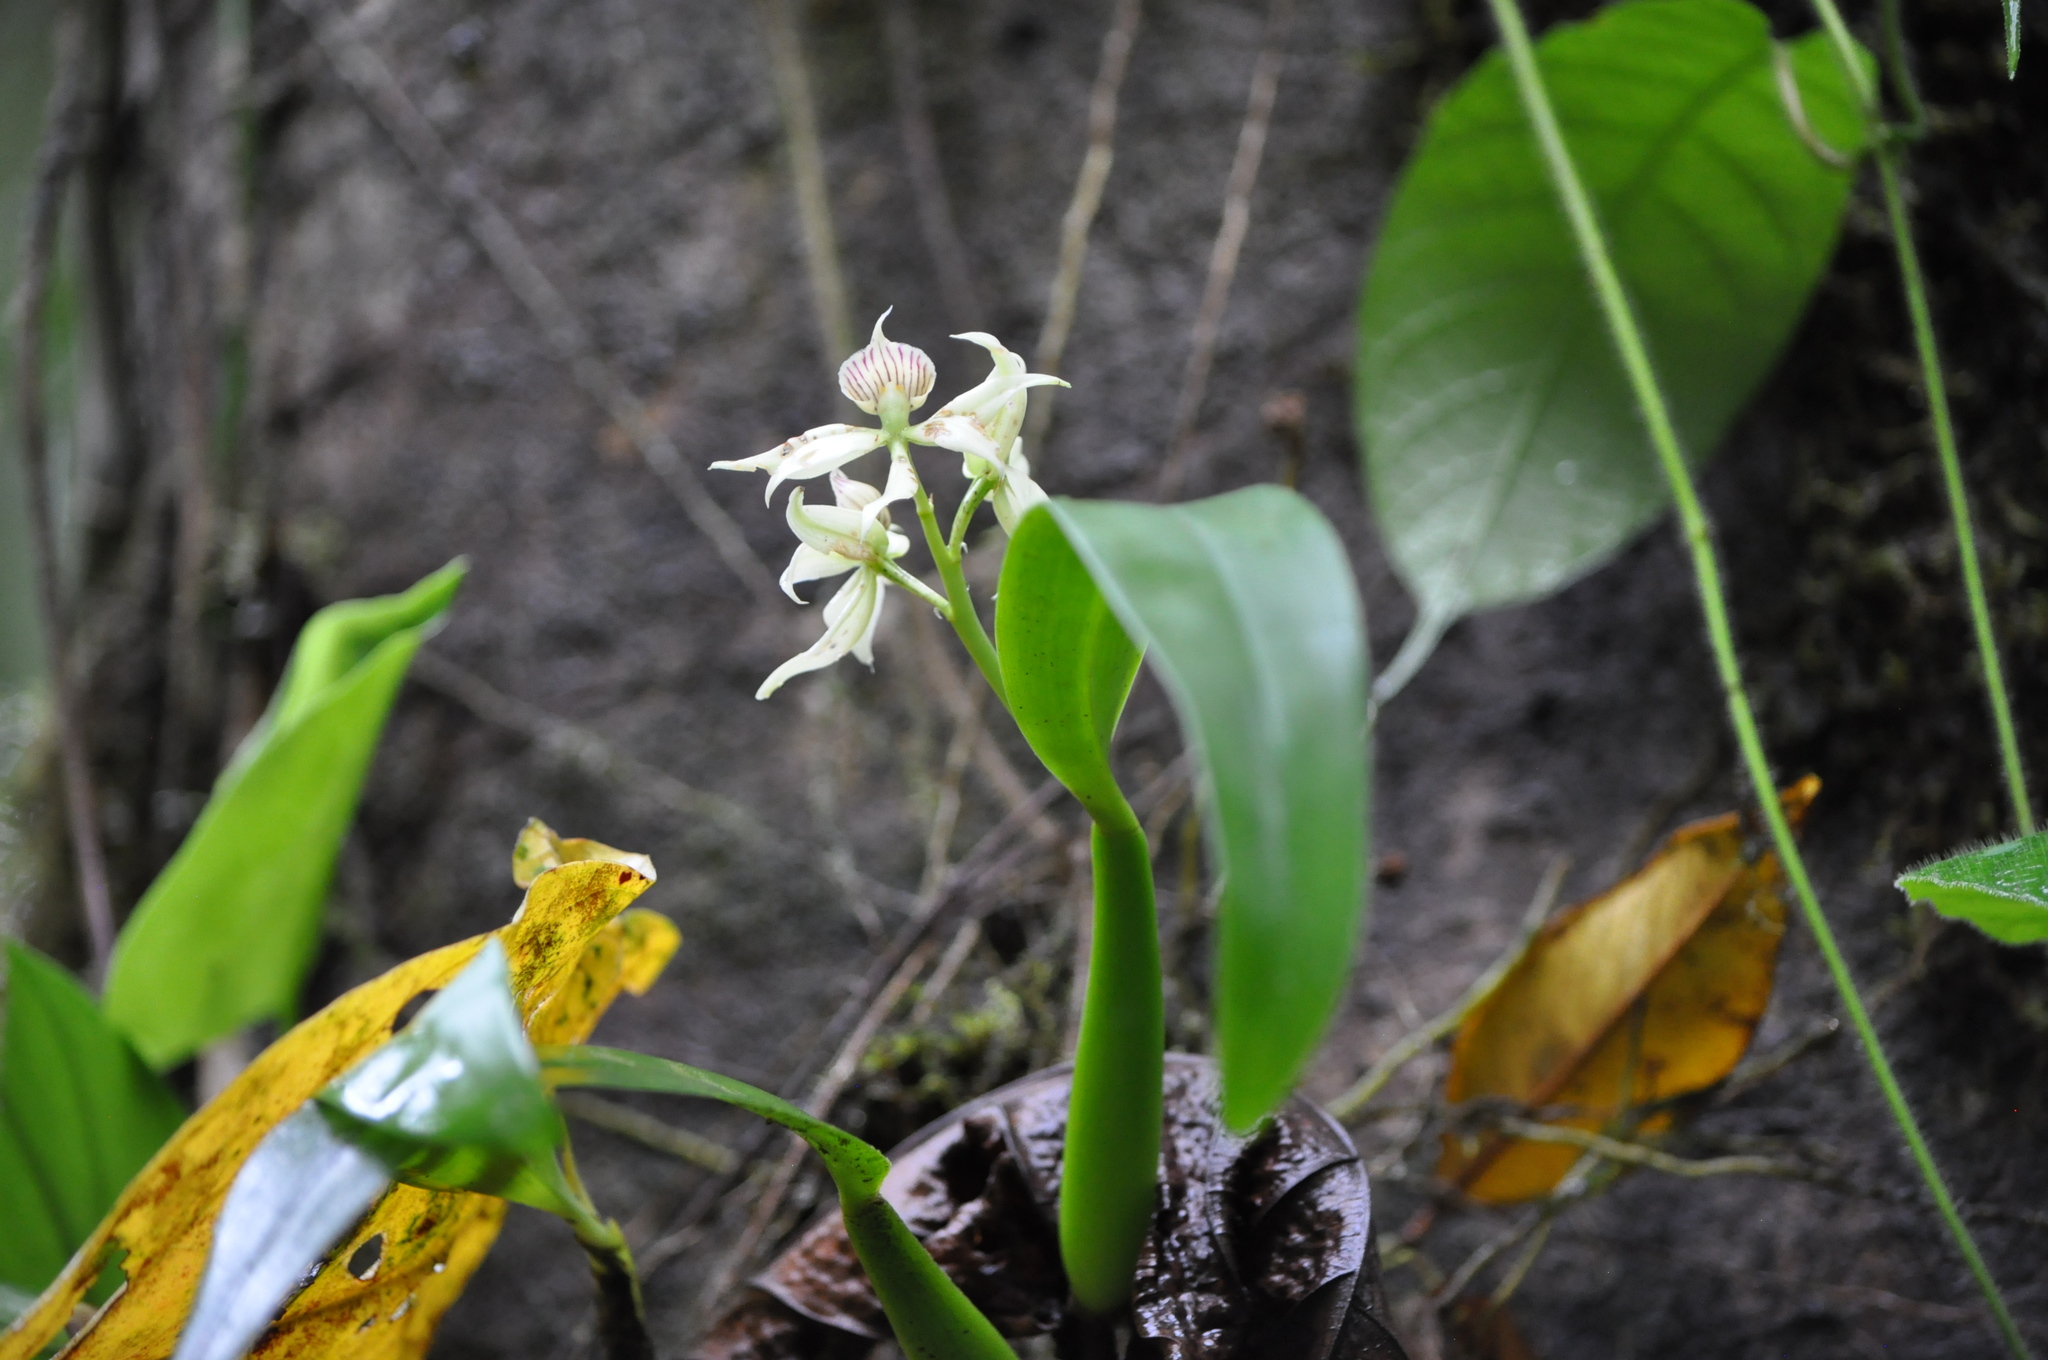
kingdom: Plantae
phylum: Tracheophyta
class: Liliopsida
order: Asparagales
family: Orchidaceae
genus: Prosthechea
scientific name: Prosthechea fragrans
